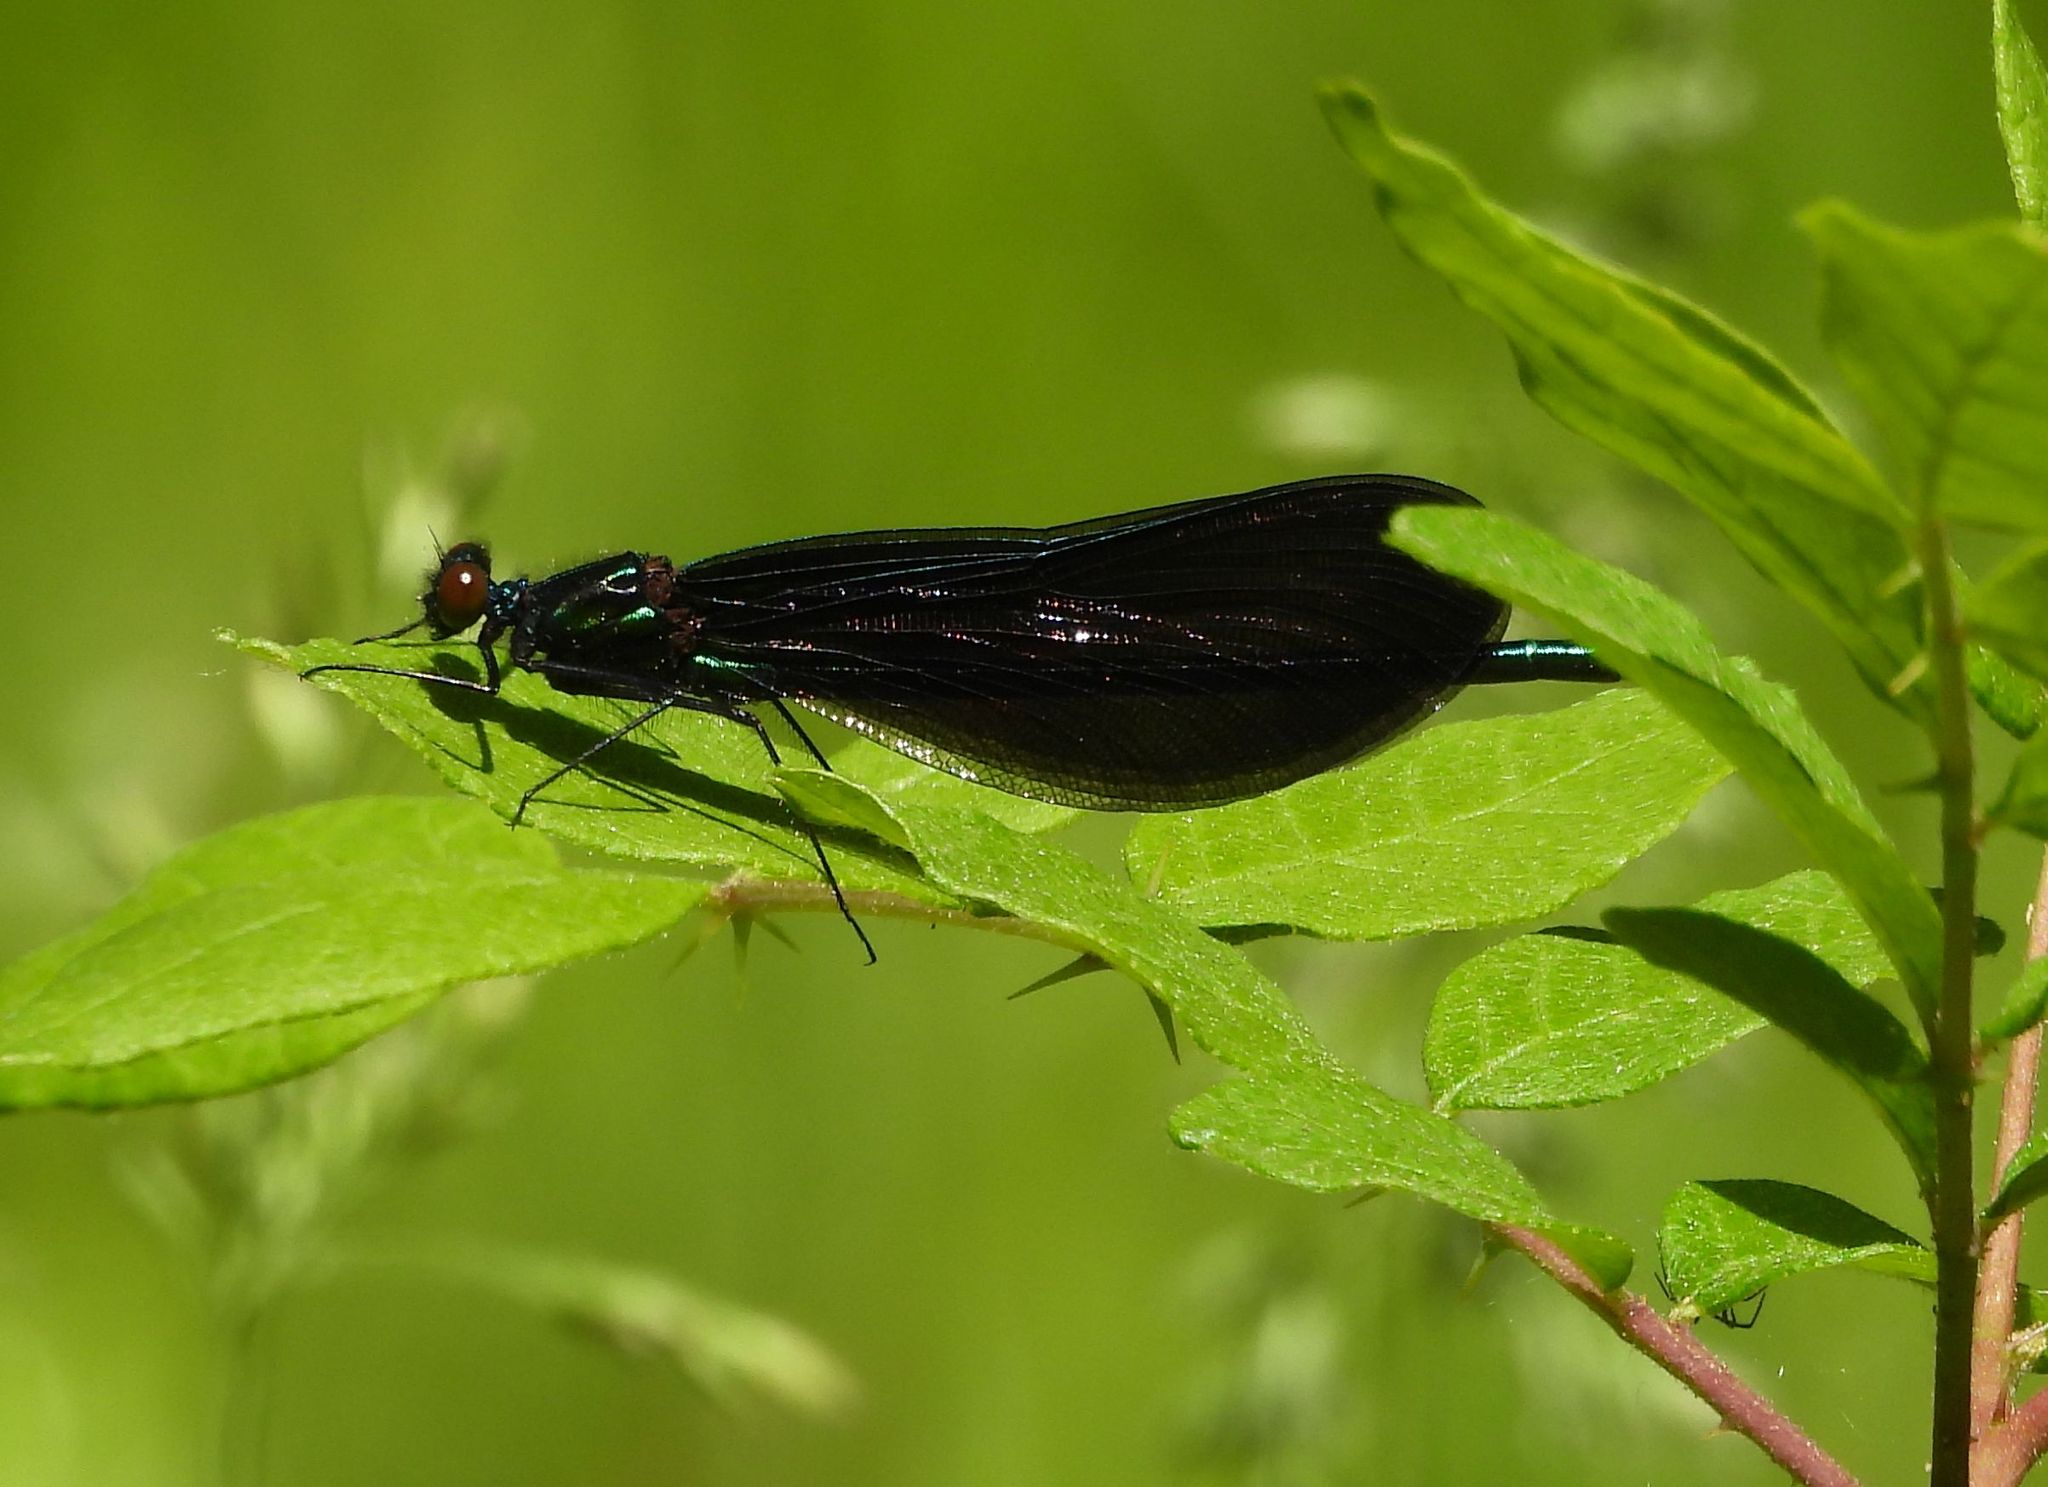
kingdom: Animalia
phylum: Arthropoda
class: Insecta
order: Odonata
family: Calopterygidae
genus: Calopteryx
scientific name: Calopteryx maculata
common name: Ebony jewelwing
